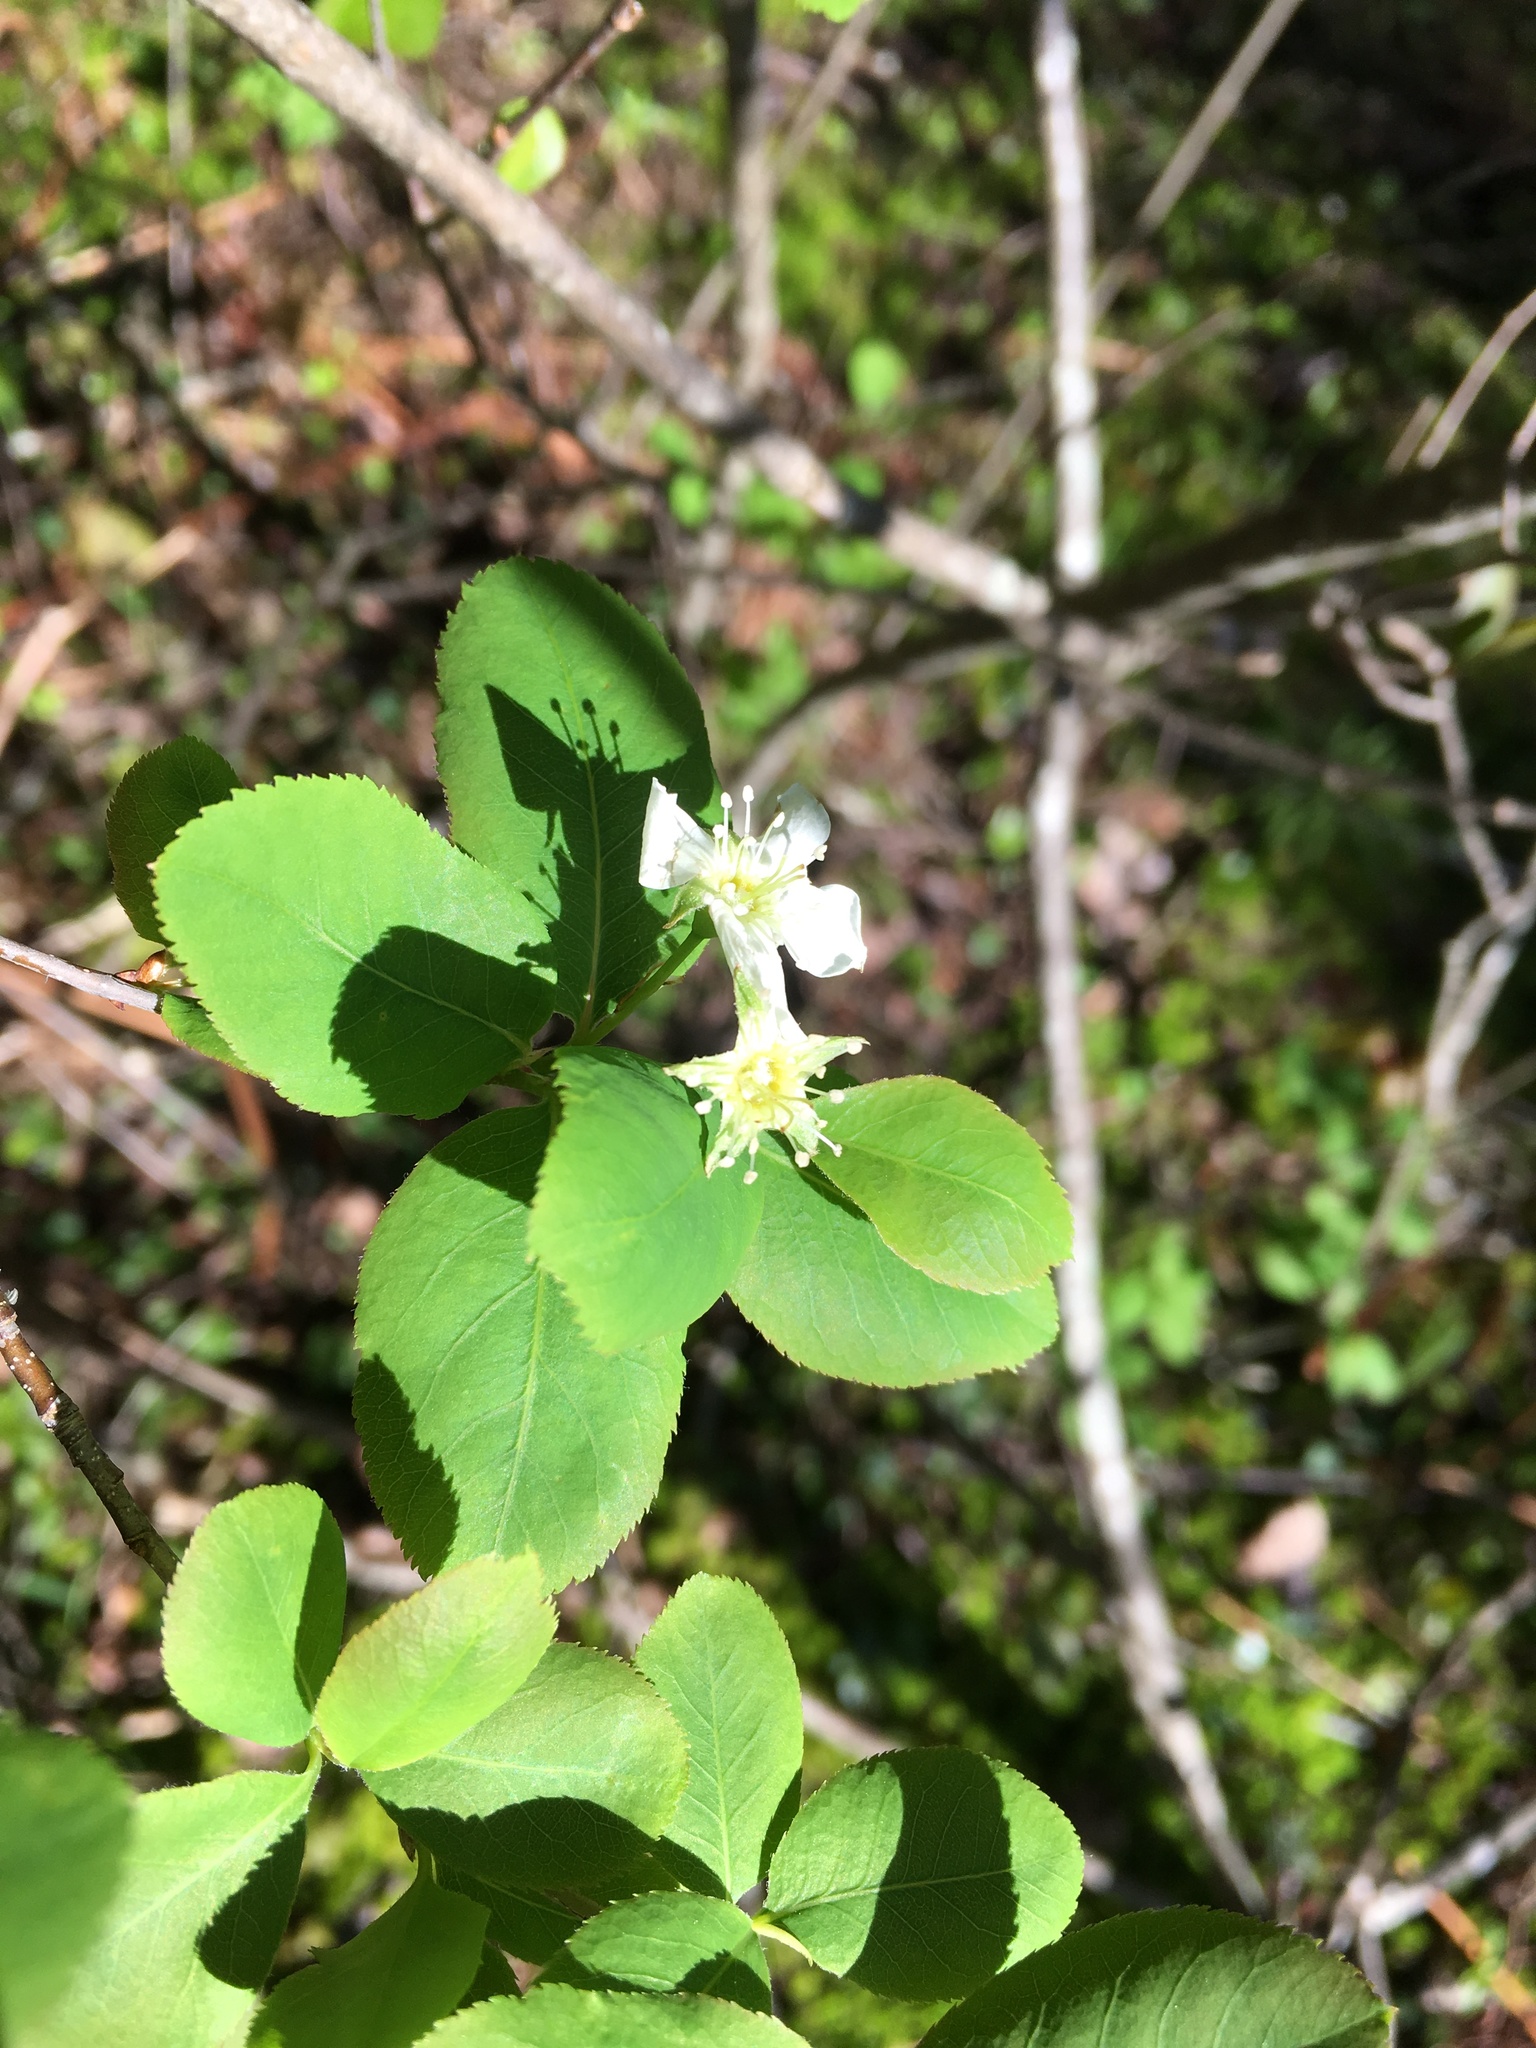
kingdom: Plantae
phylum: Tracheophyta
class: Magnoliopsida
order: Rosales
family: Rosaceae
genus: Amelanchier
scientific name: Amelanchier bartramiana
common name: Mountain serviceberry
